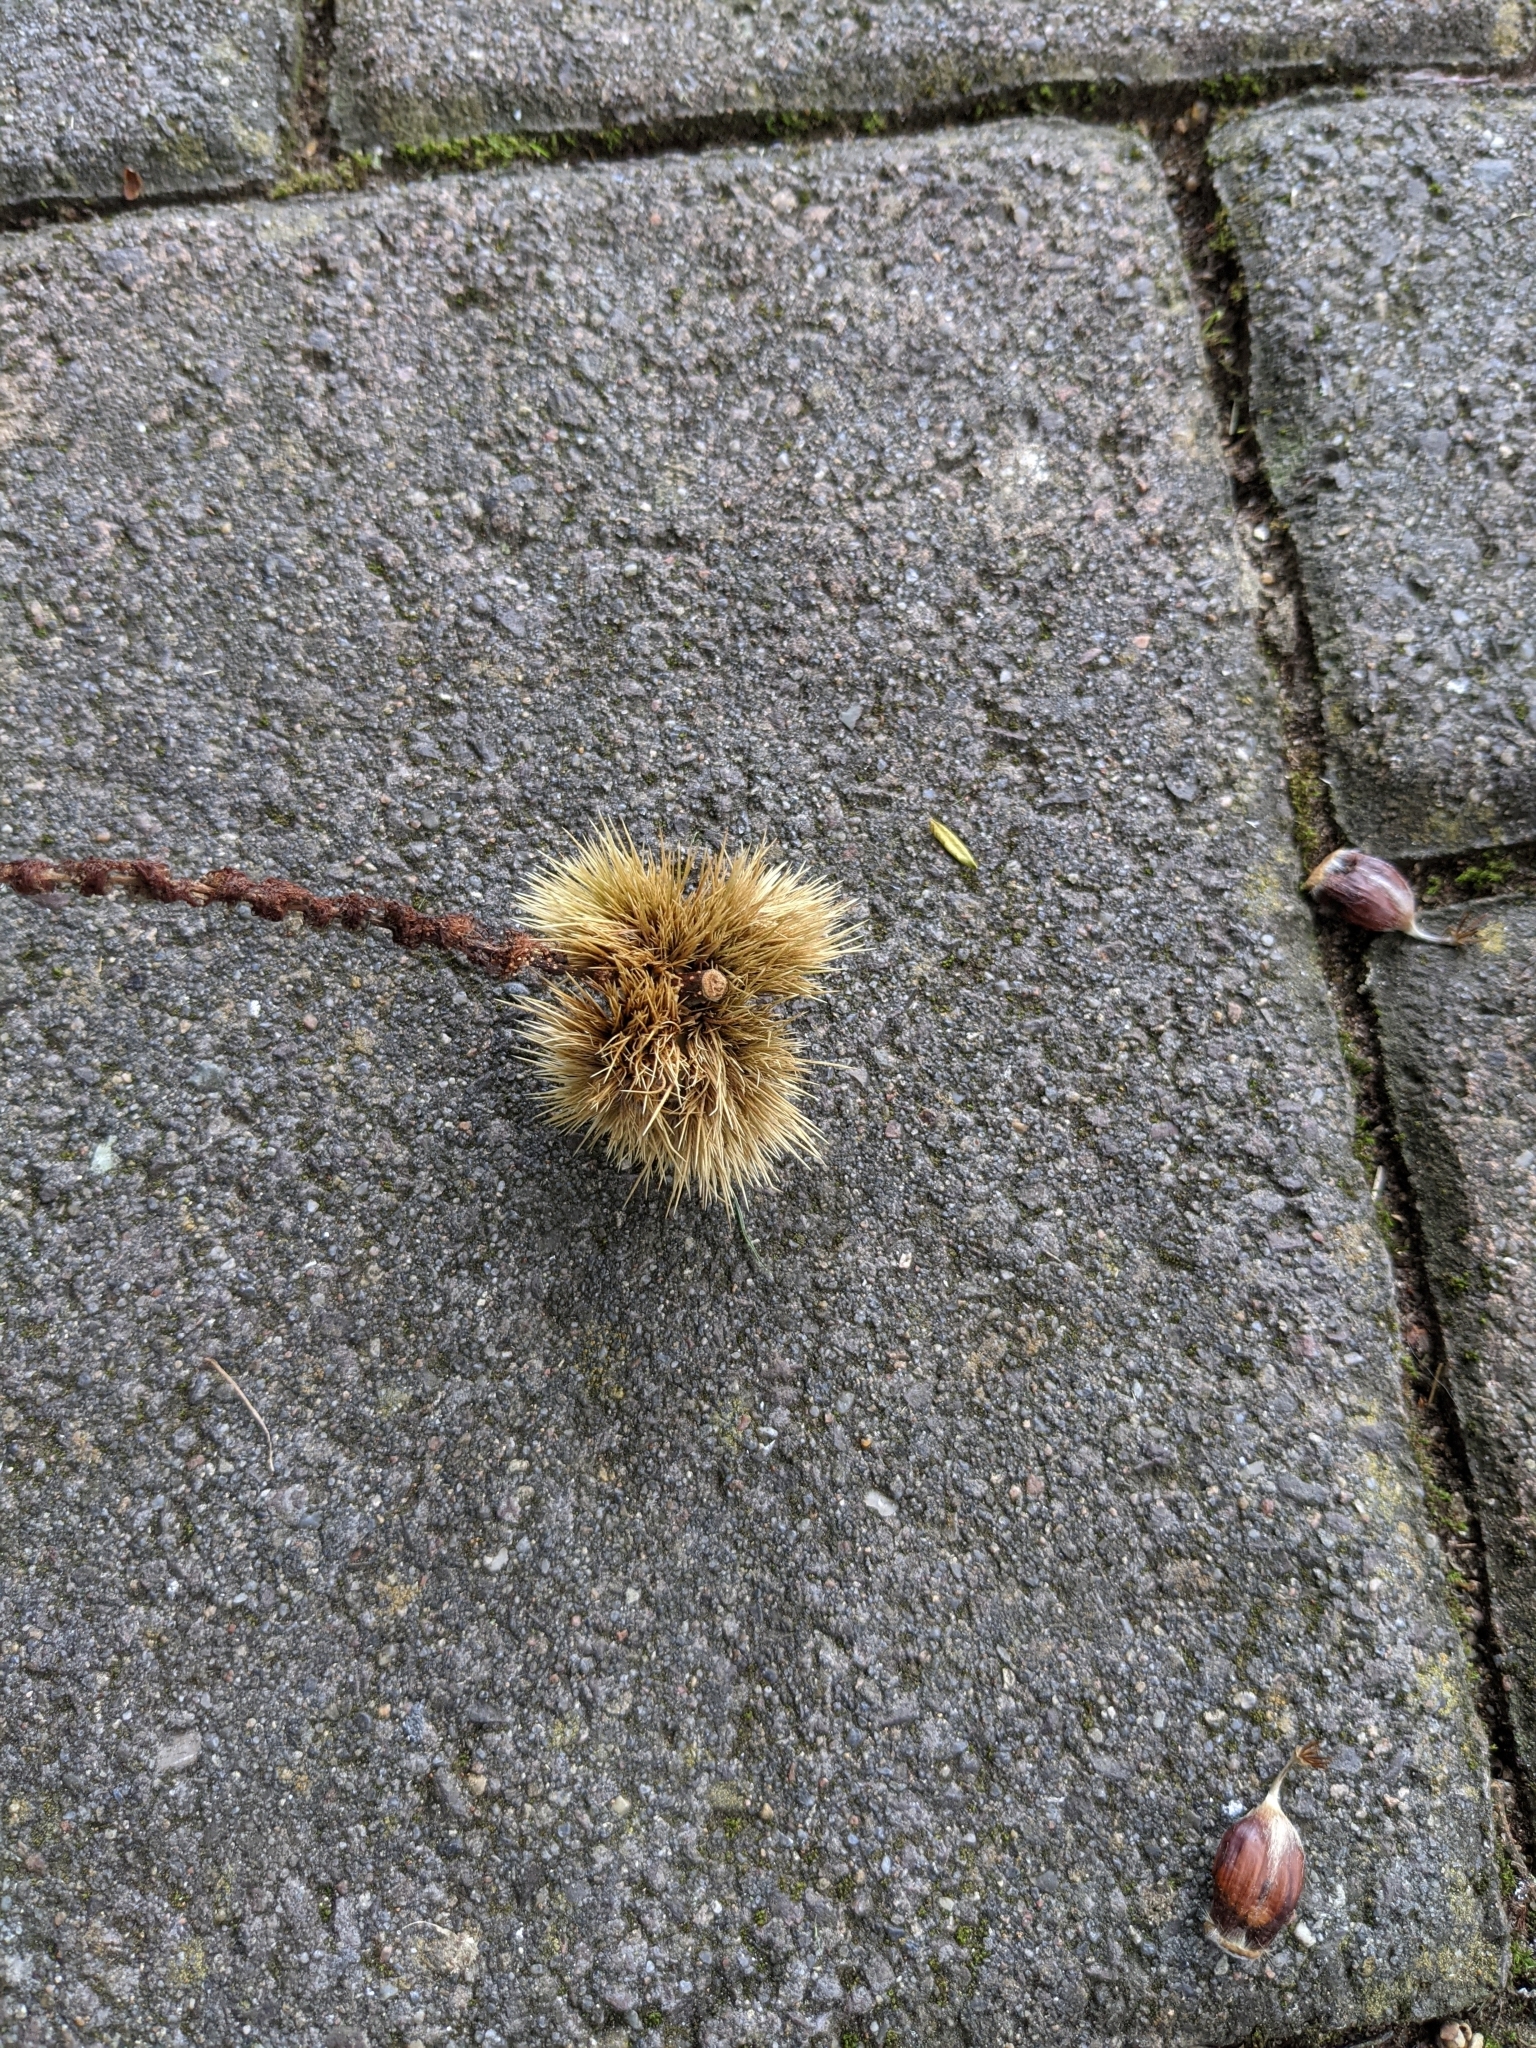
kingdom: Plantae
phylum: Tracheophyta
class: Magnoliopsida
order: Fagales
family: Fagaceae
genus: Castanea
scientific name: Castanea sativa
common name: Sweet chestnut
